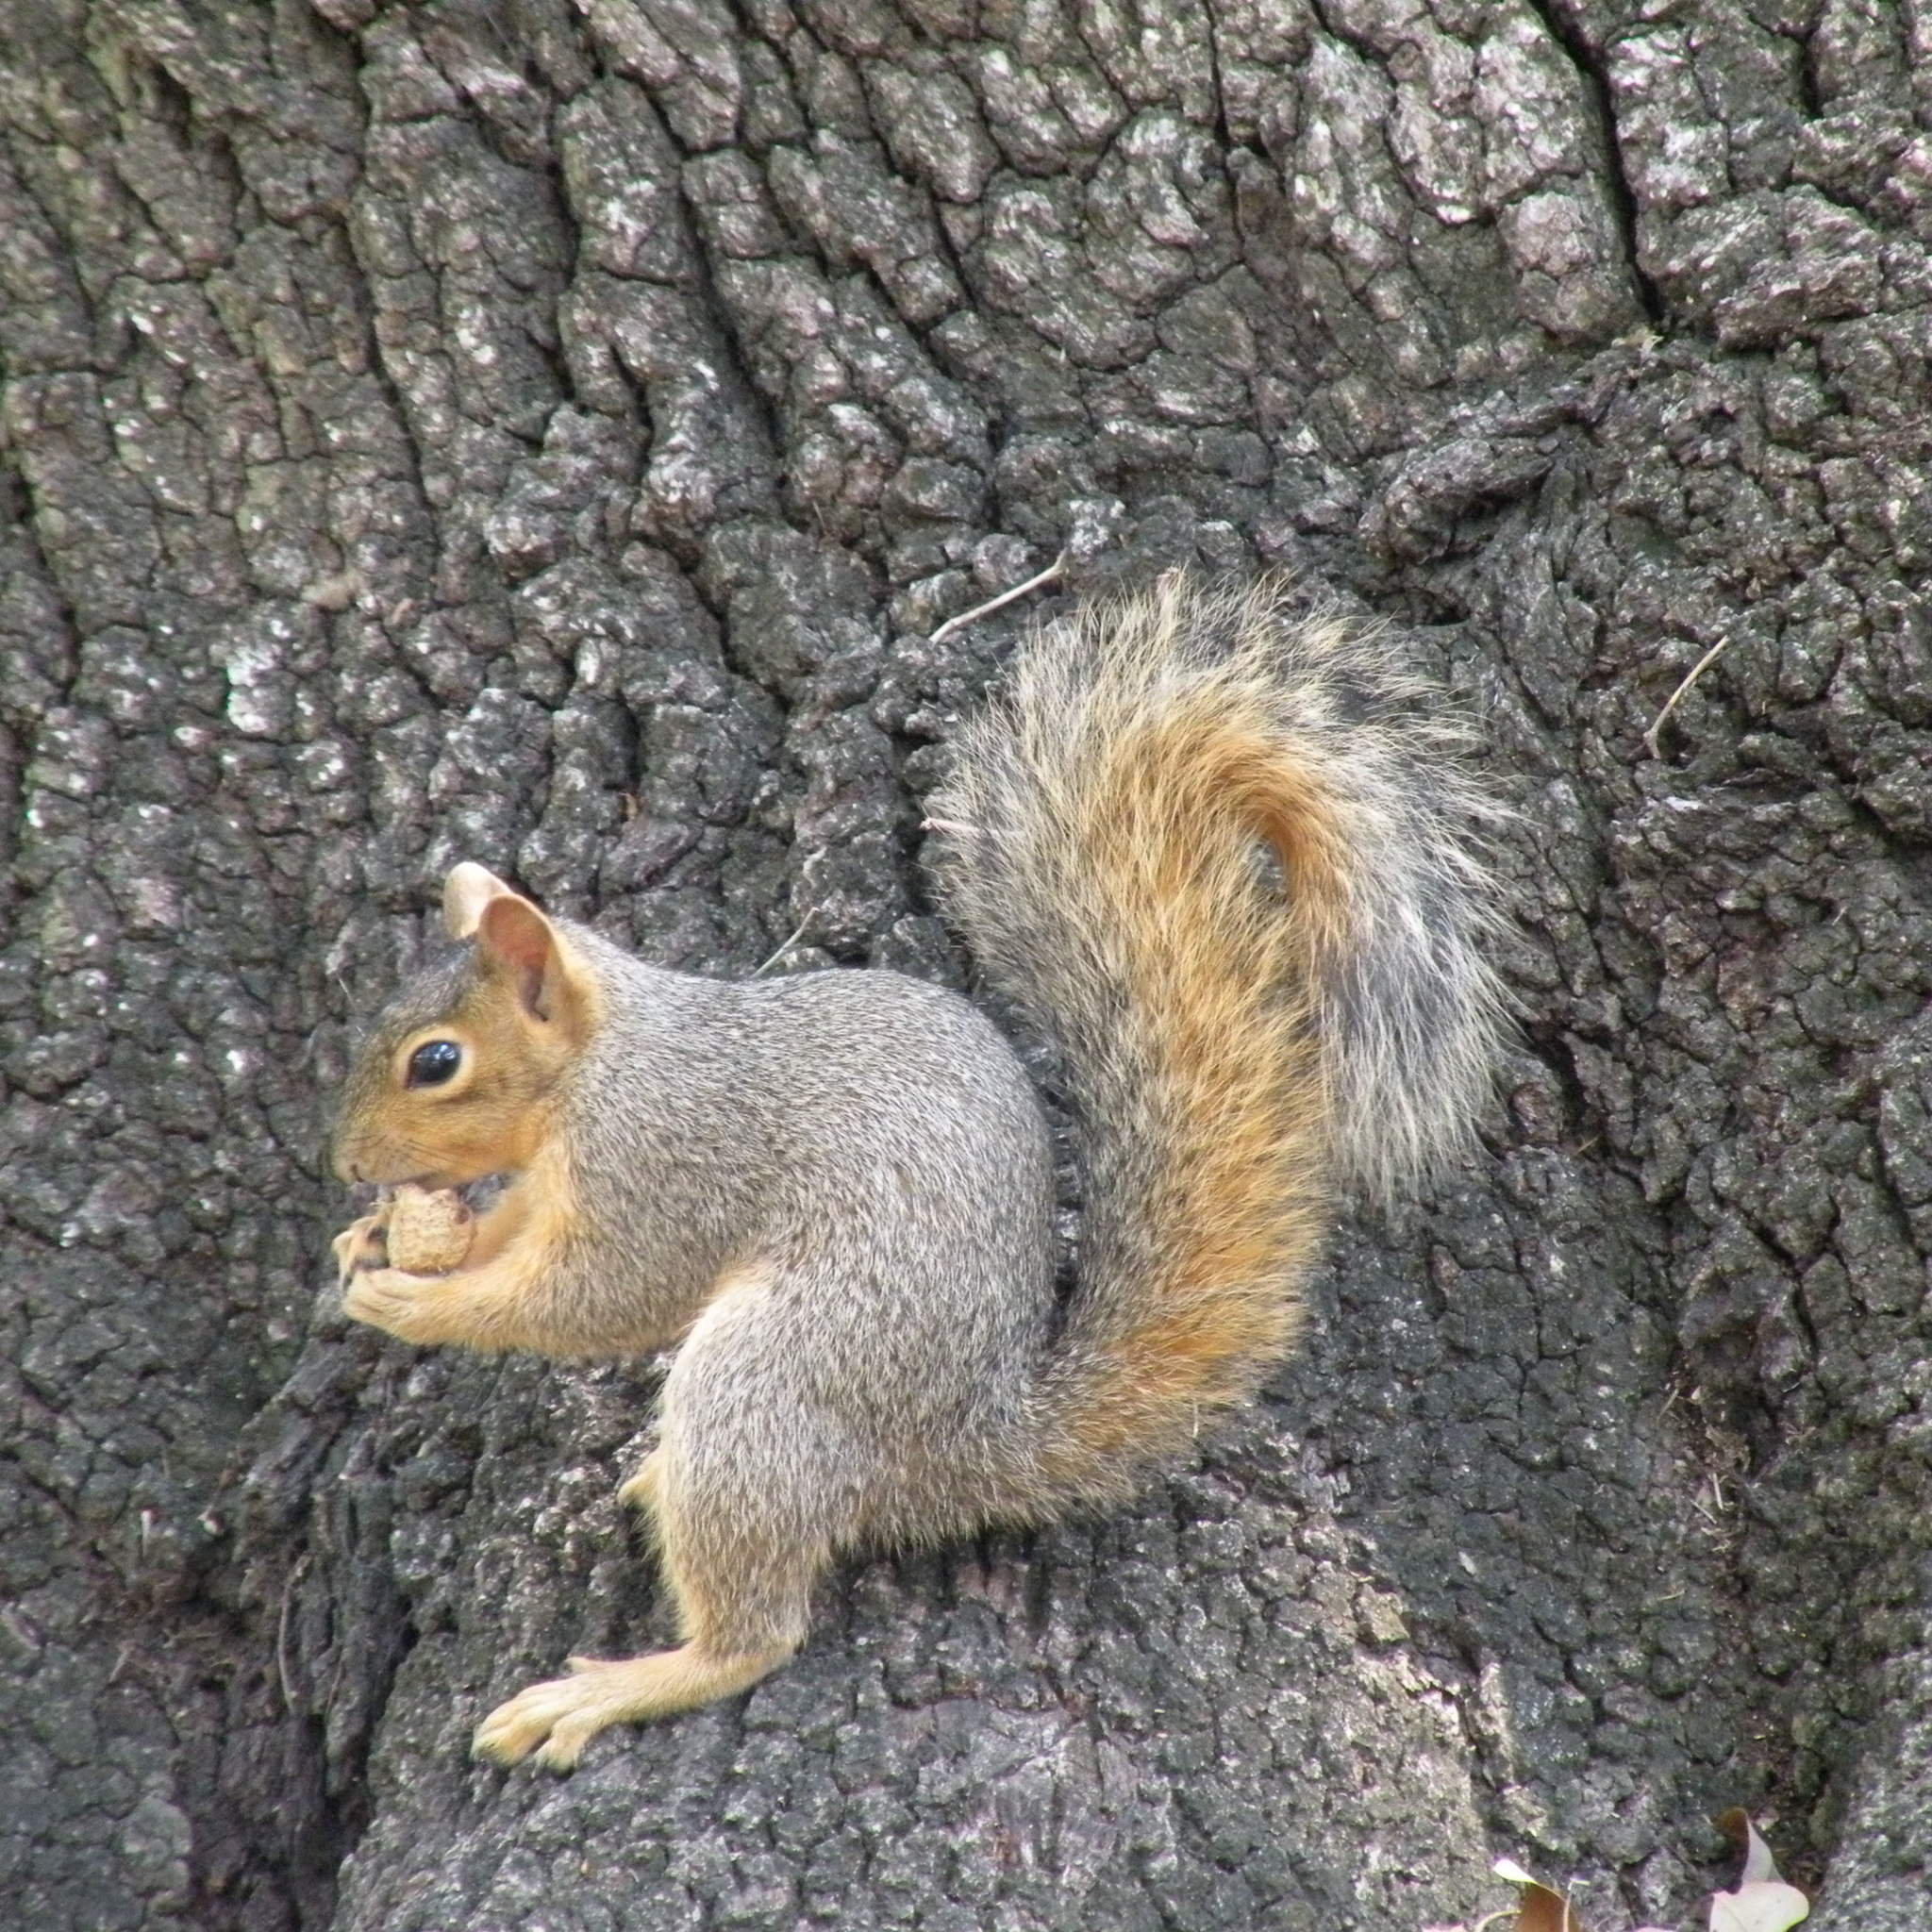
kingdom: Animalia
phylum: Chordata
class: Mammalia
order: Rodentia
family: Sciuridae
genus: Sciurus
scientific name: Sciurus niger
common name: Fox squirrel
